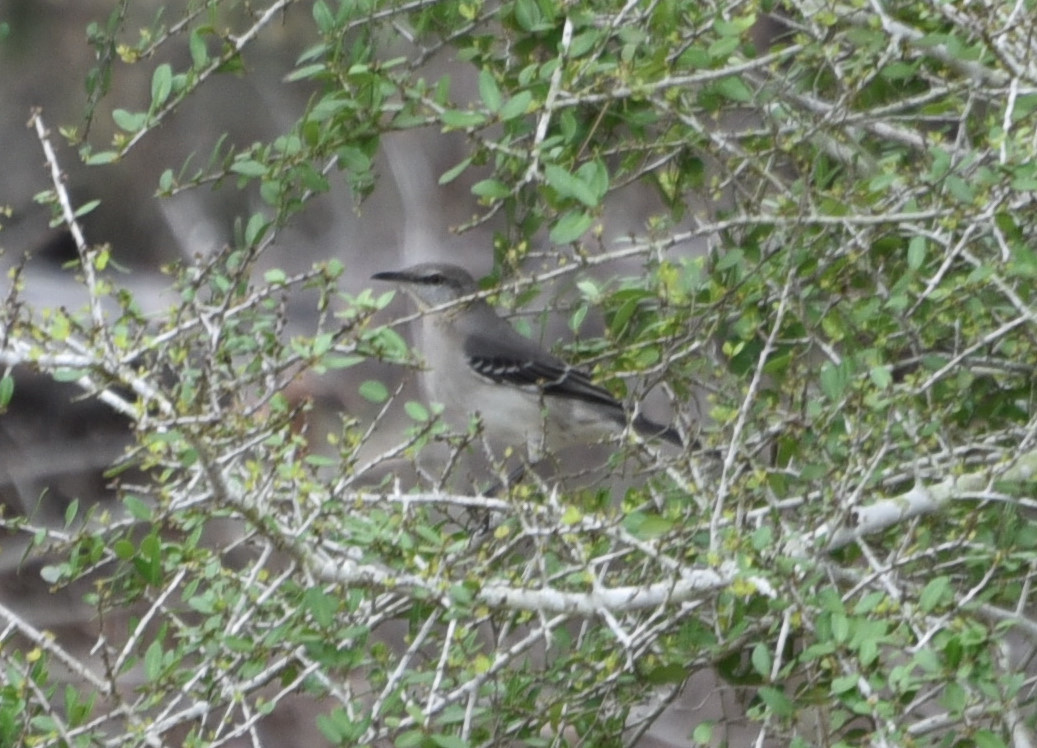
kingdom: Animalia
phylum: Chordata
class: Aves
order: Passeriformes
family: Mimidae
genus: Mimus
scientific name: Mimus polyglottos
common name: Northern mockingbird
